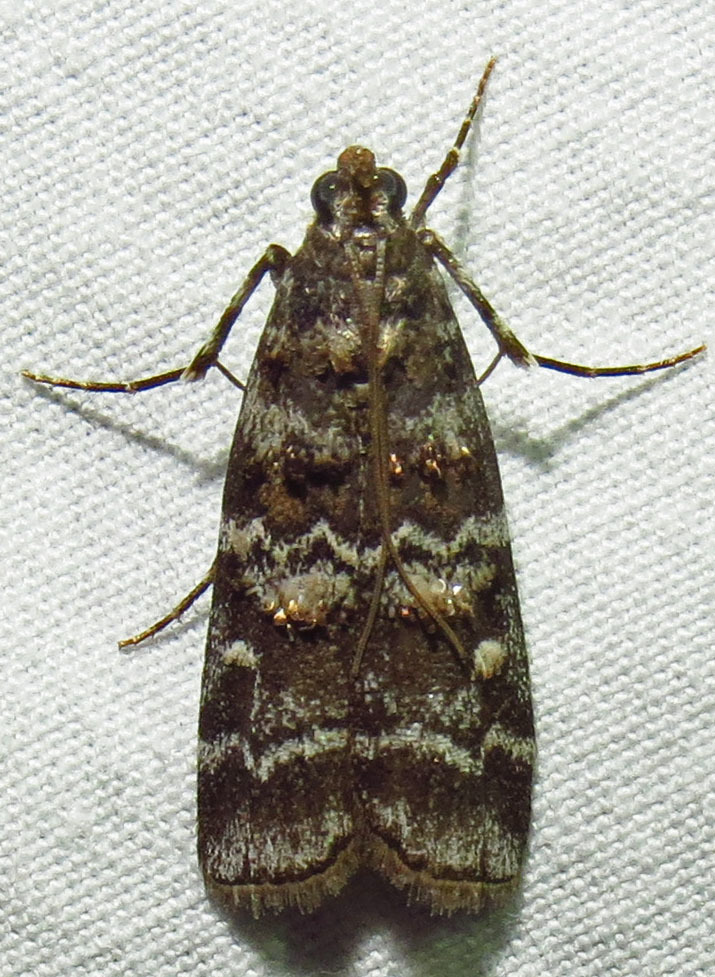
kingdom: Animalia
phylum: Arthropoda
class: Insecta
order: Lepidoptera
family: Pyralidae
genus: Dioryctria
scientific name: Dioryctria amatella
